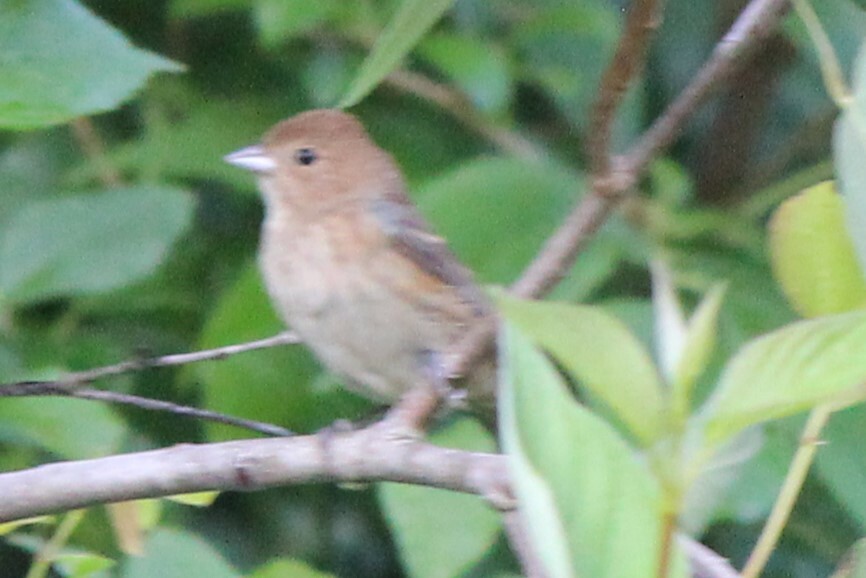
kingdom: Animalia
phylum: Chordata
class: Aves
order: Passeriformes
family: Cardinalidae
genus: Passerina
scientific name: Passerina cyanea
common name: Indigo bunting
